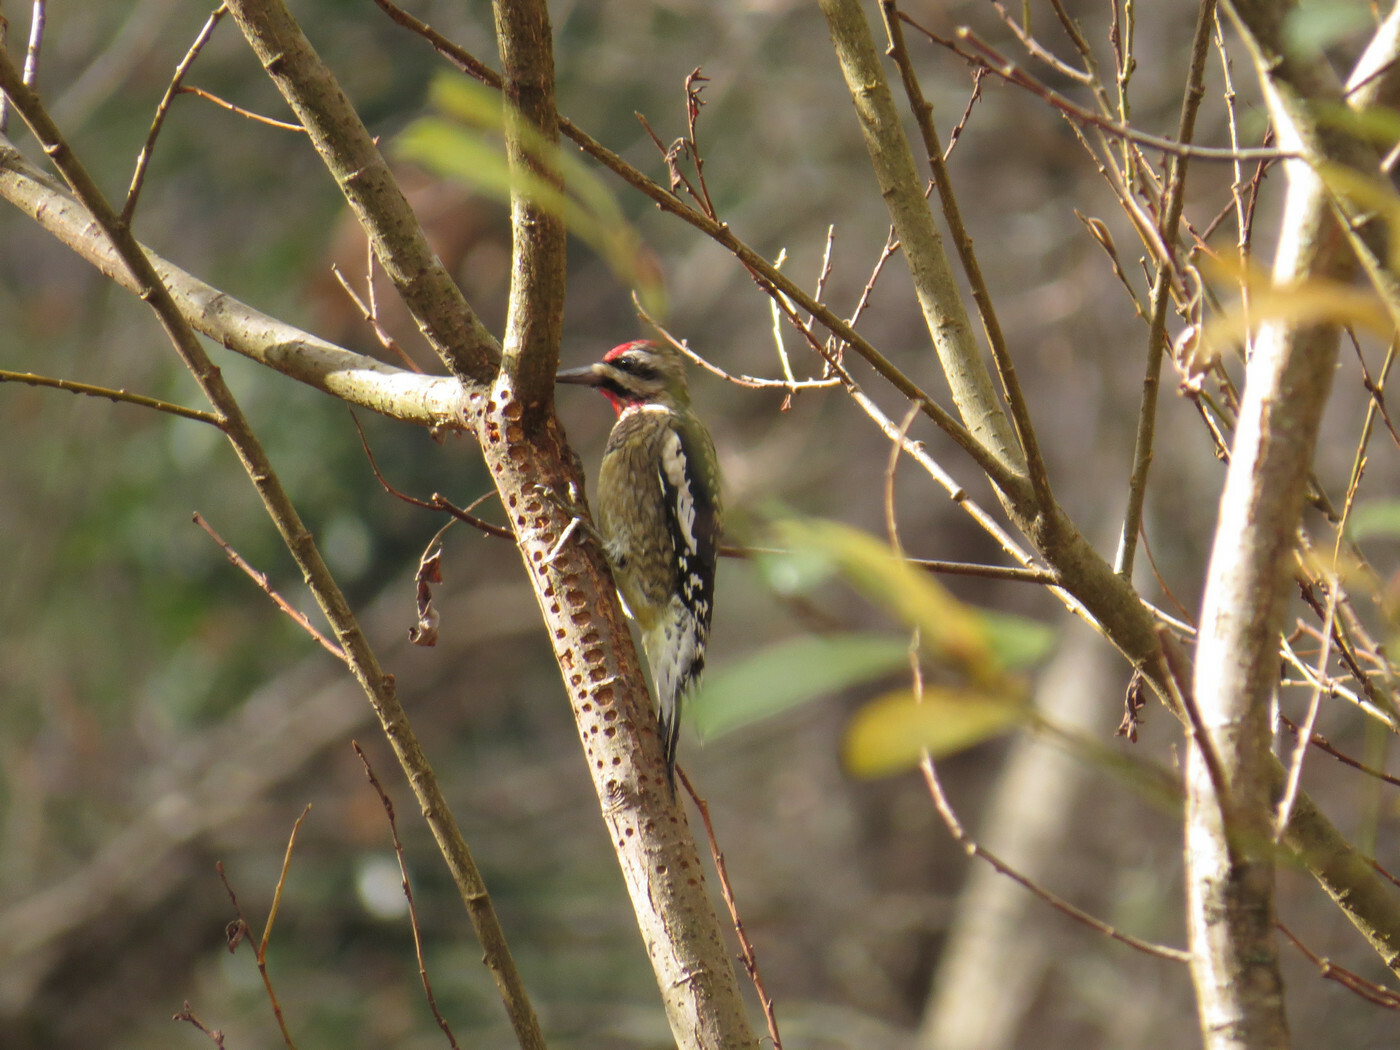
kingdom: Animalia
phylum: Chordata
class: Aves
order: Piciformes
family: Picidae
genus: Sphyrapicus
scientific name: Sphyrapicus varius
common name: Yellow-bellied sapsucker
